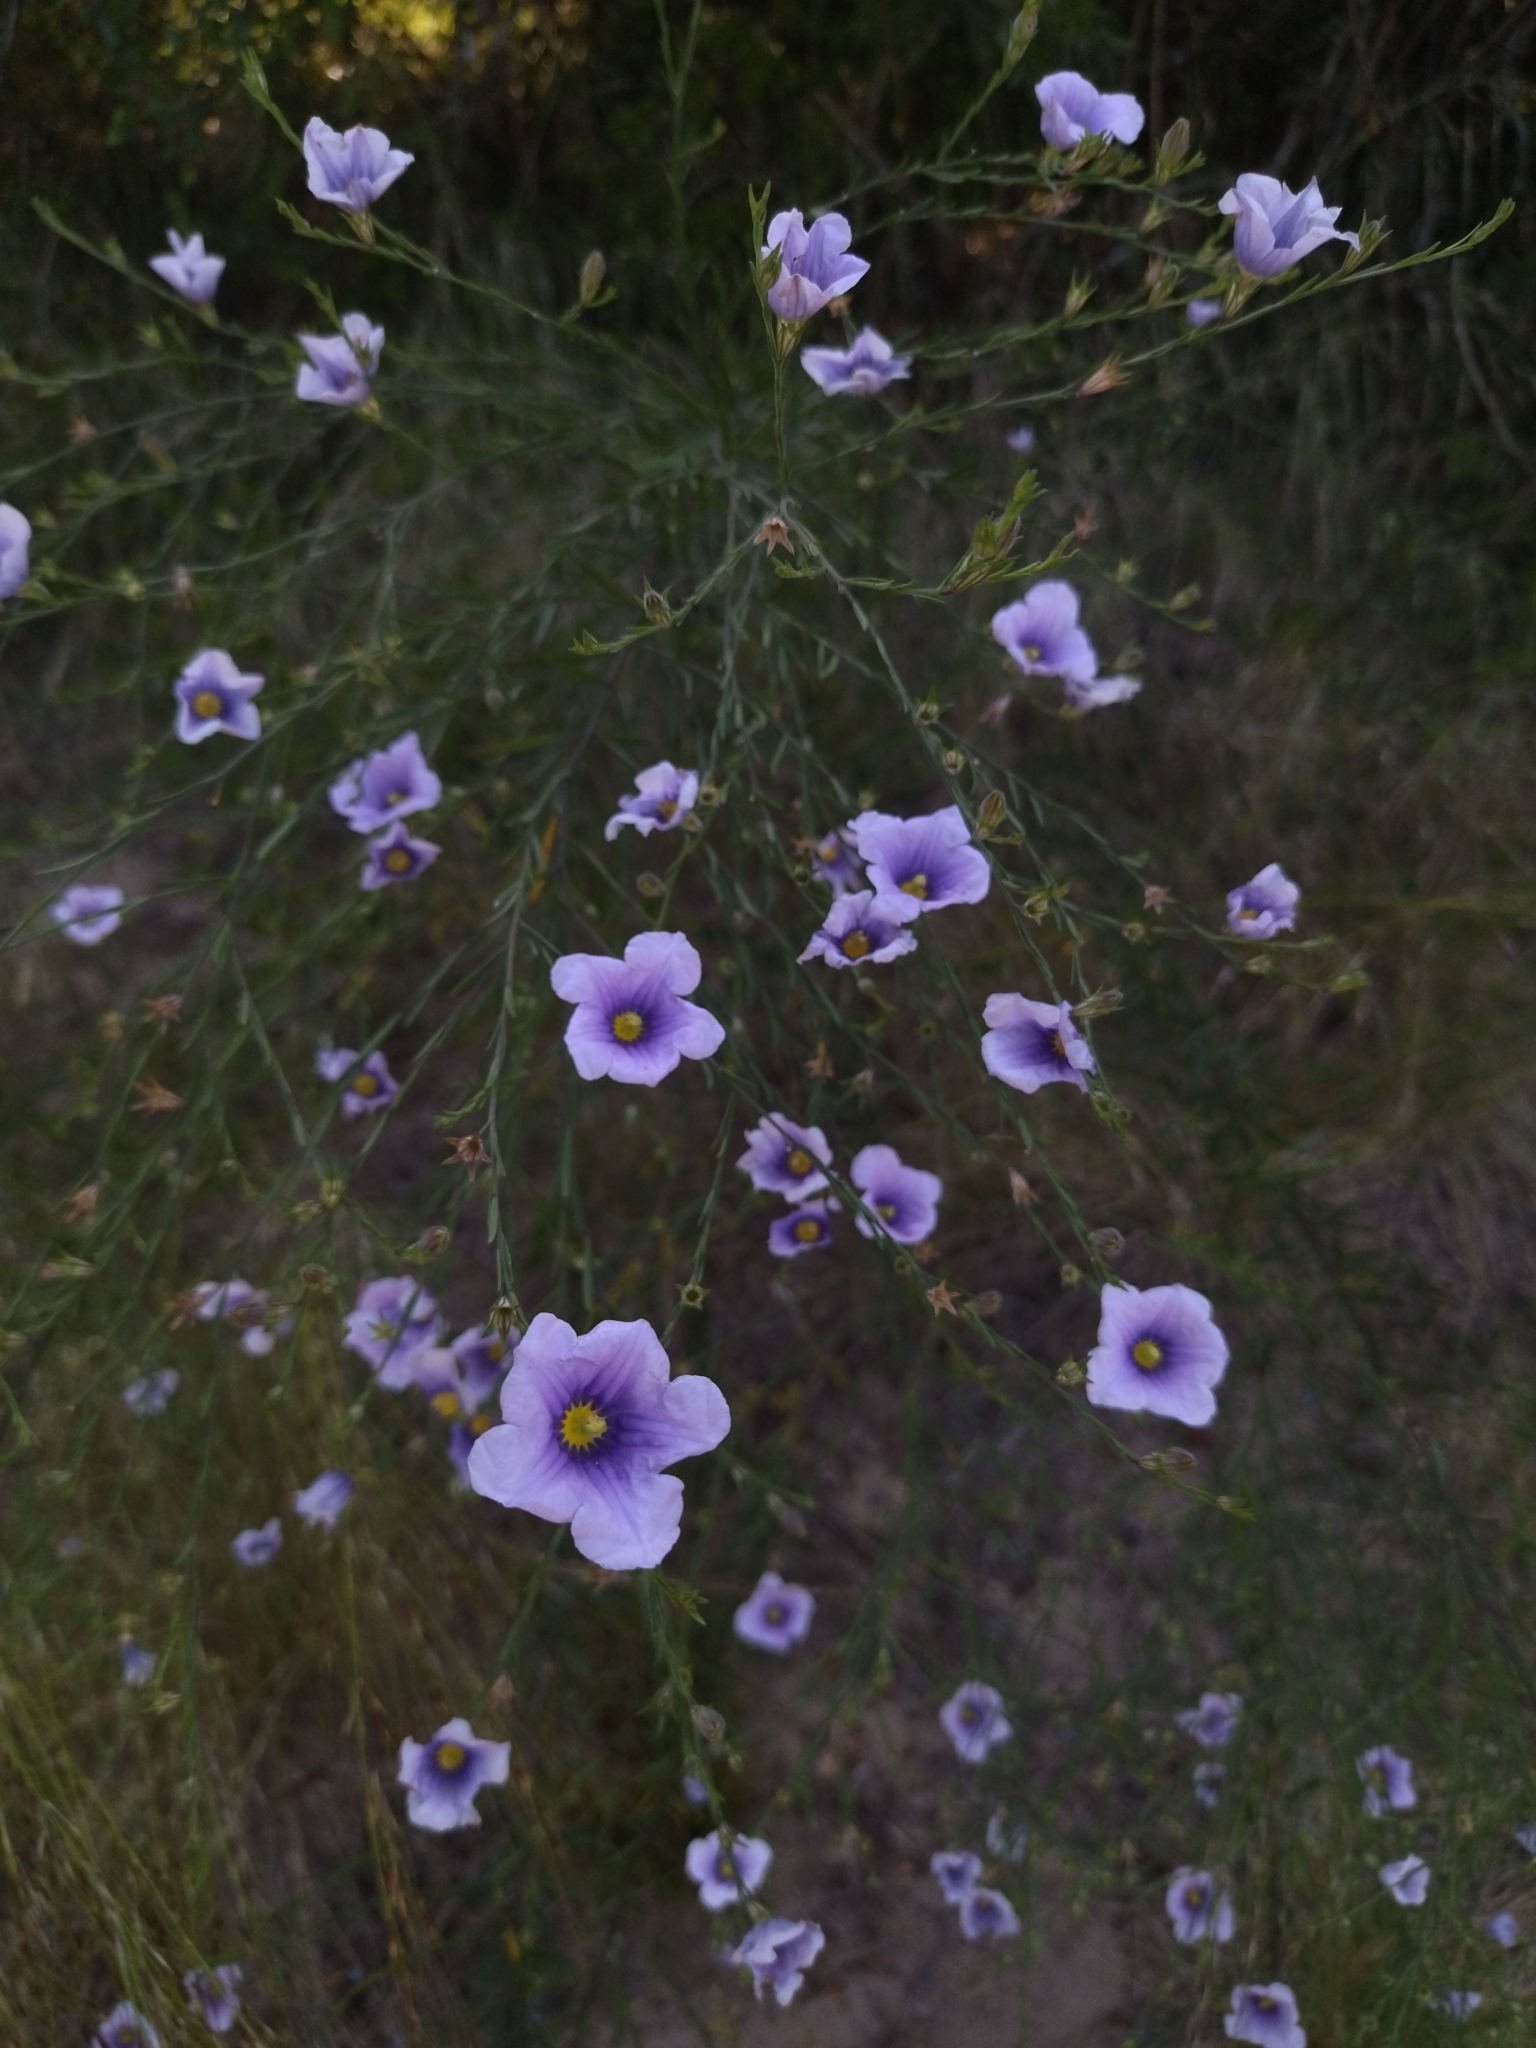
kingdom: Plantae
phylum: Tracheophyta
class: Magnoliopsida
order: Solanales
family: Solanaceae
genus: Nierembergia
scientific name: Nierembergia scoparia
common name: Broom cupflower
